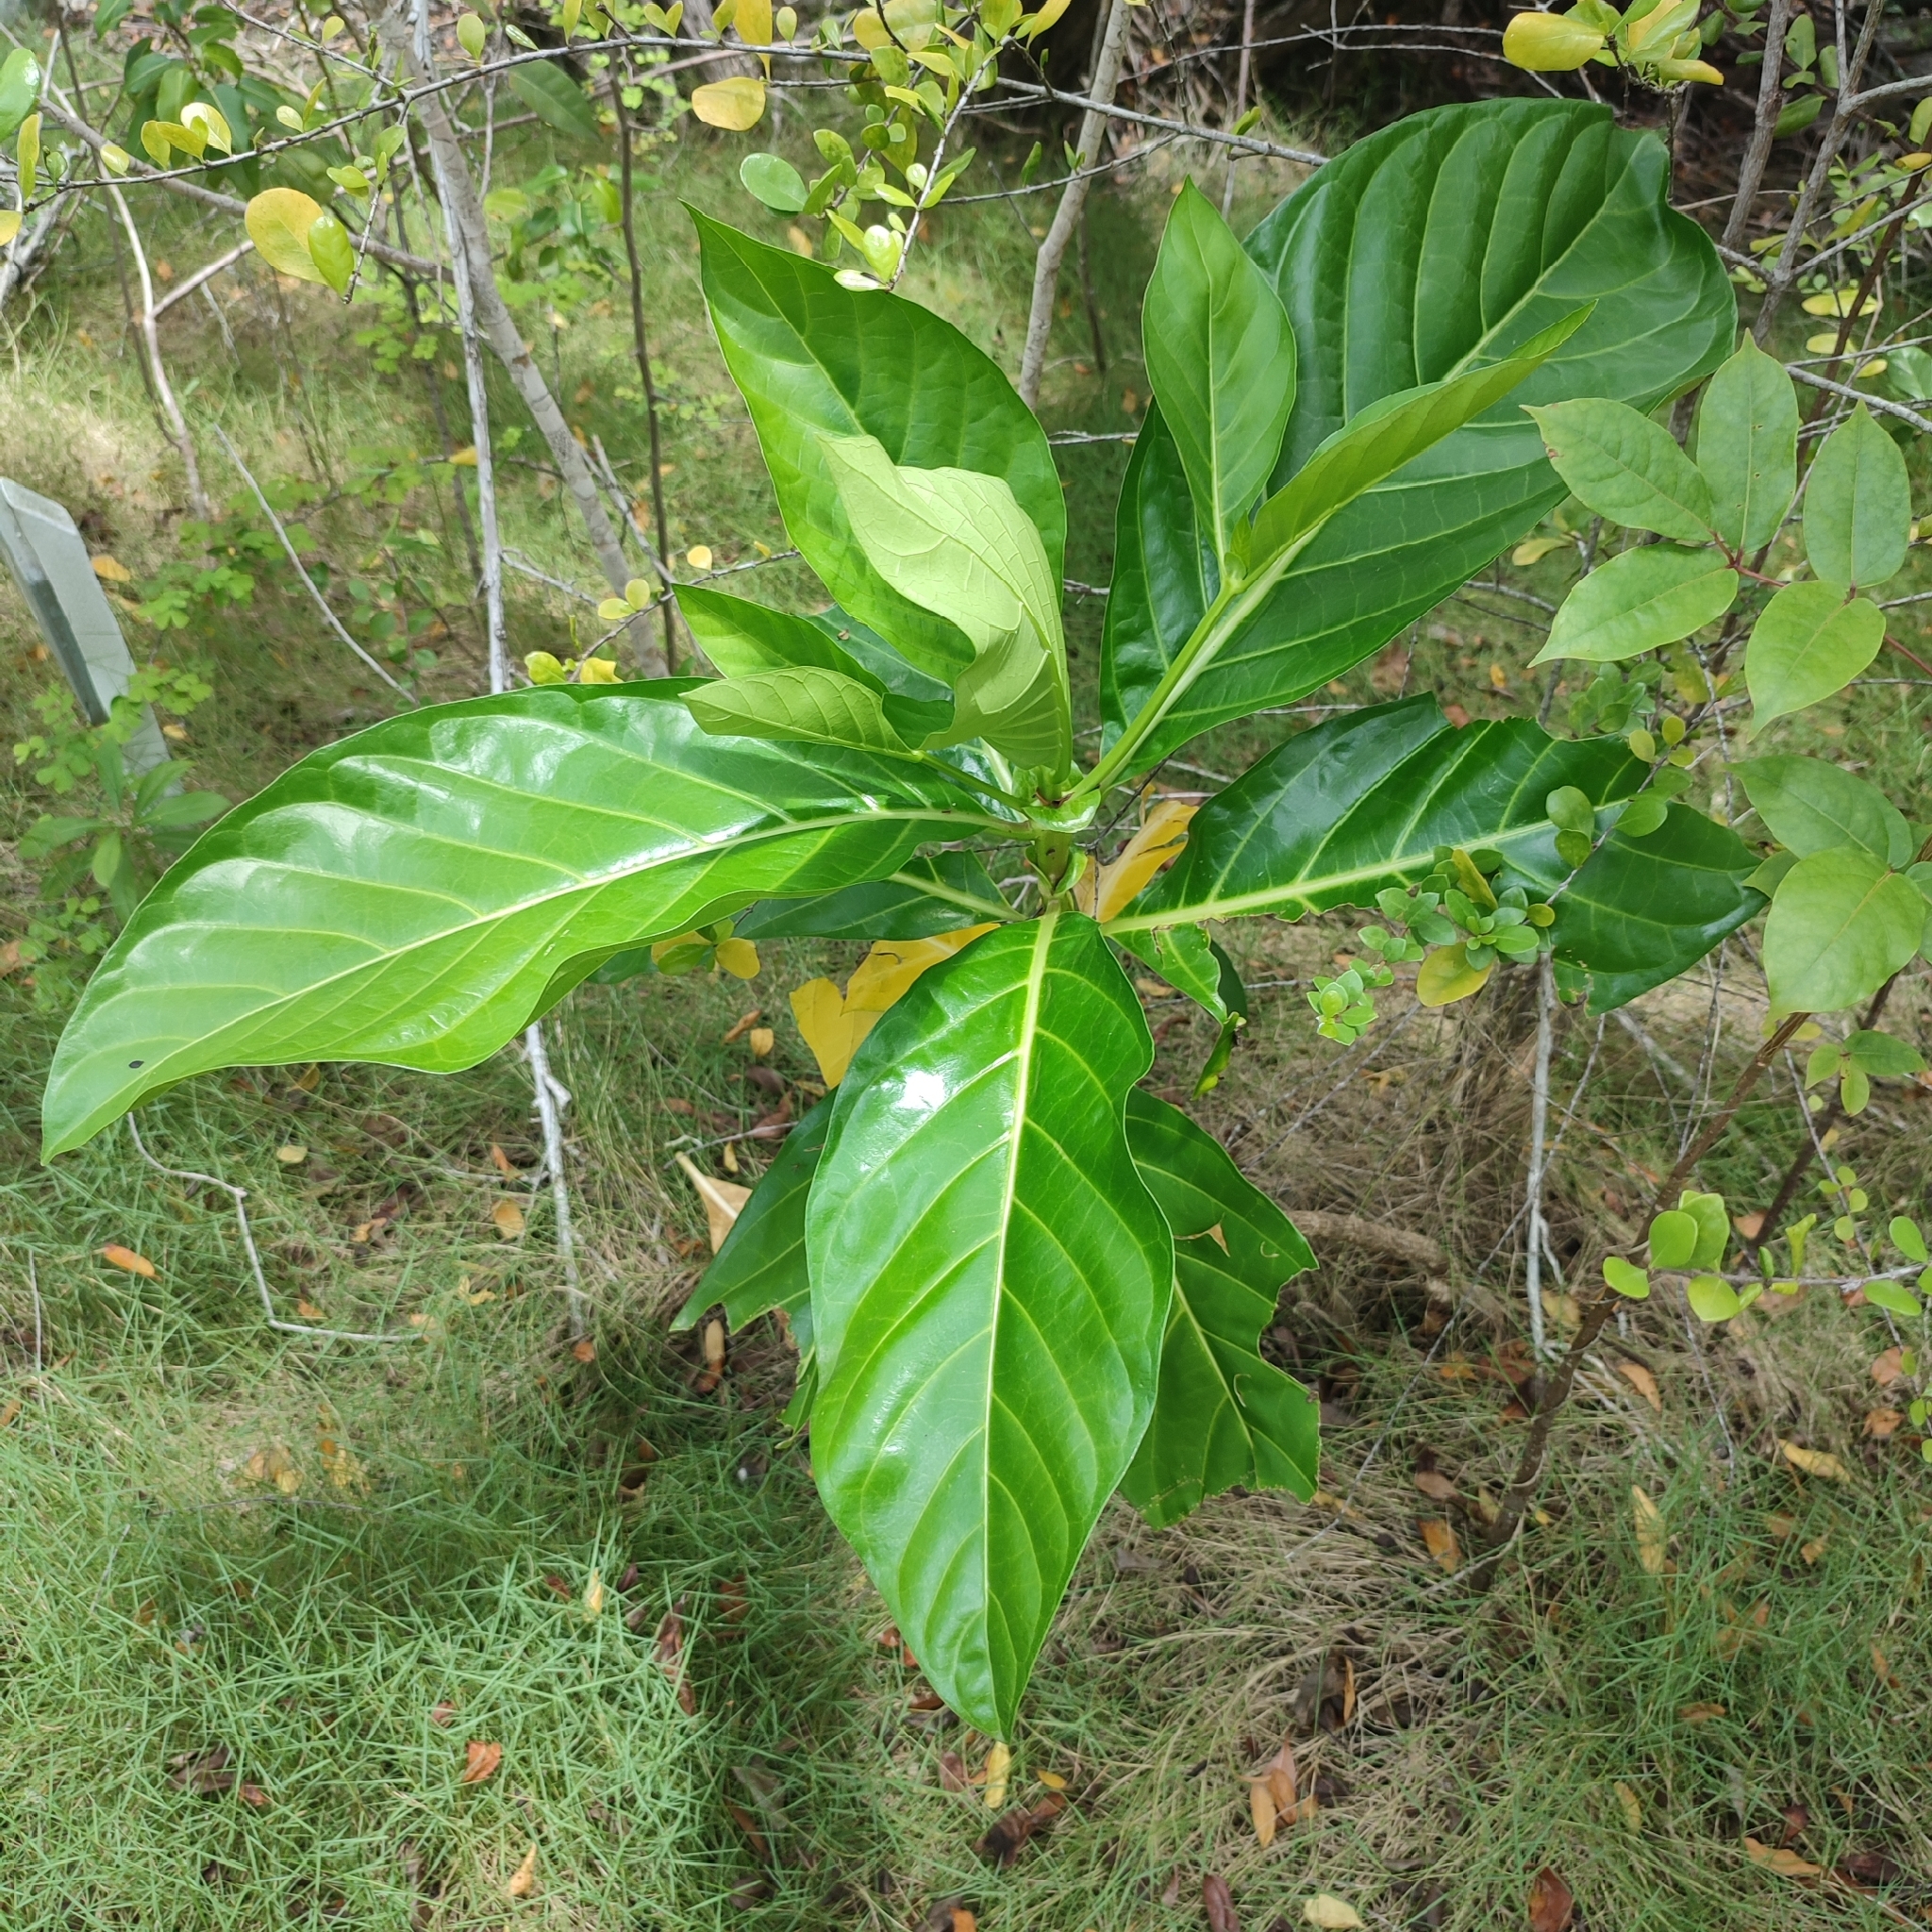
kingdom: Plantae
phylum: Tracheophyta
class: Magnoliopsida
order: Gentianales
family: Rubiaceae
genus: Morinda
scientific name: Morinda citrifolia
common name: Indian-mulberry
